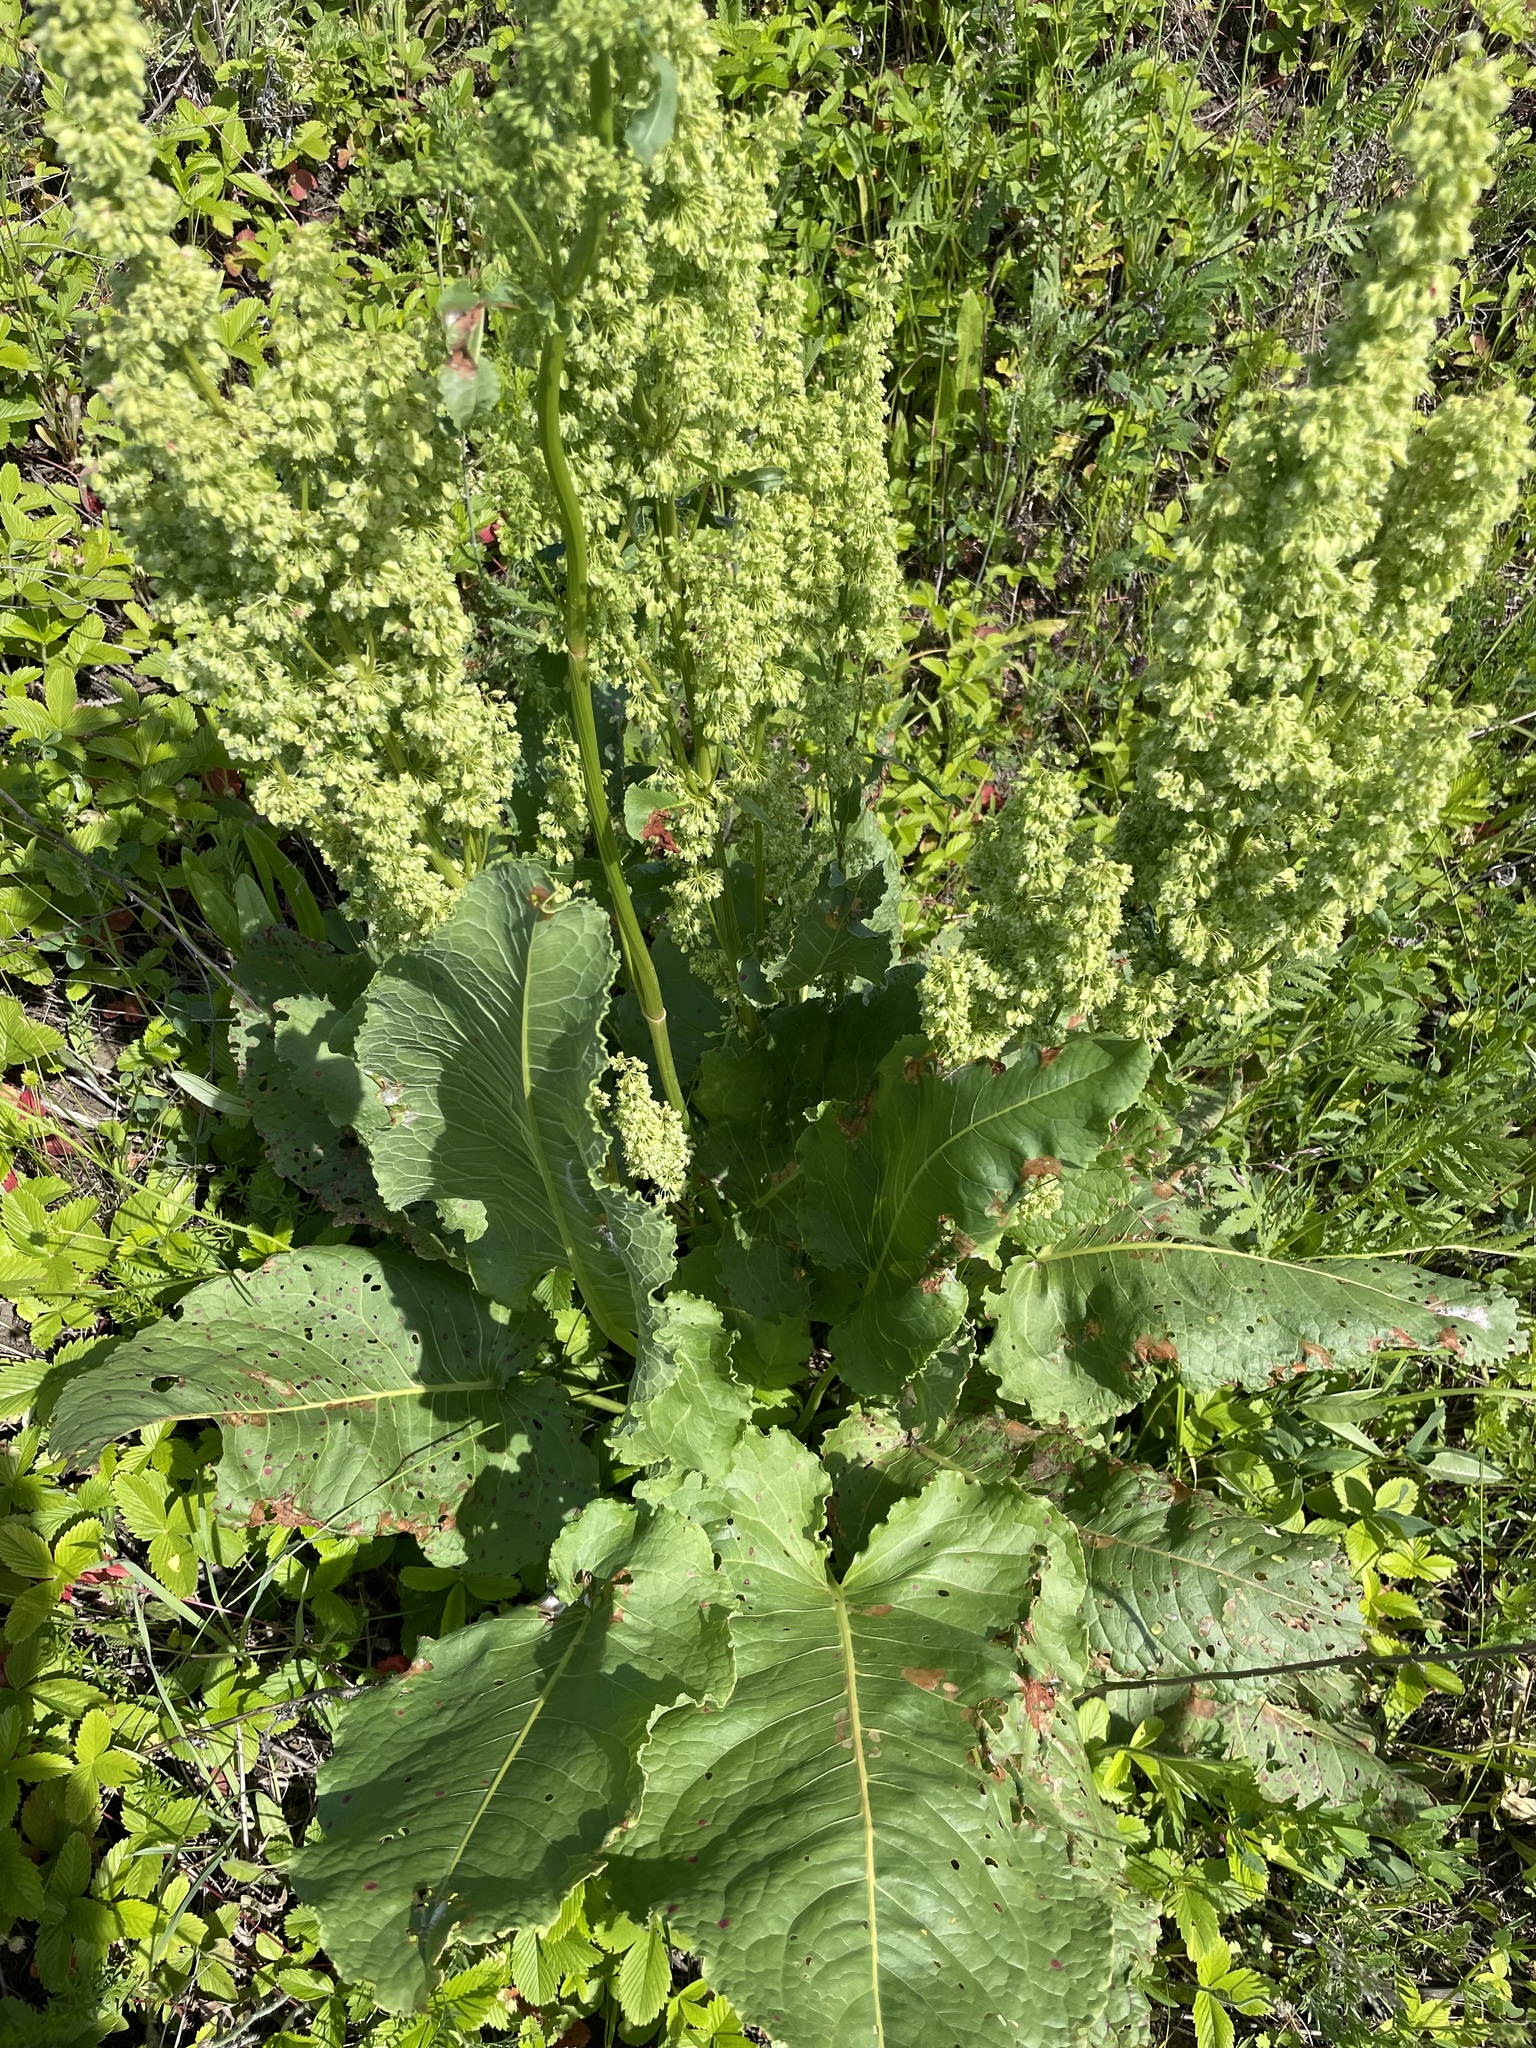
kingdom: Plantae
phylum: Tracheophyta
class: Magnoliopsida
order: Caryophyllales
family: Polygonaceae
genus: Rumex
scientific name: Rumex confertus
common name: Russian dock
